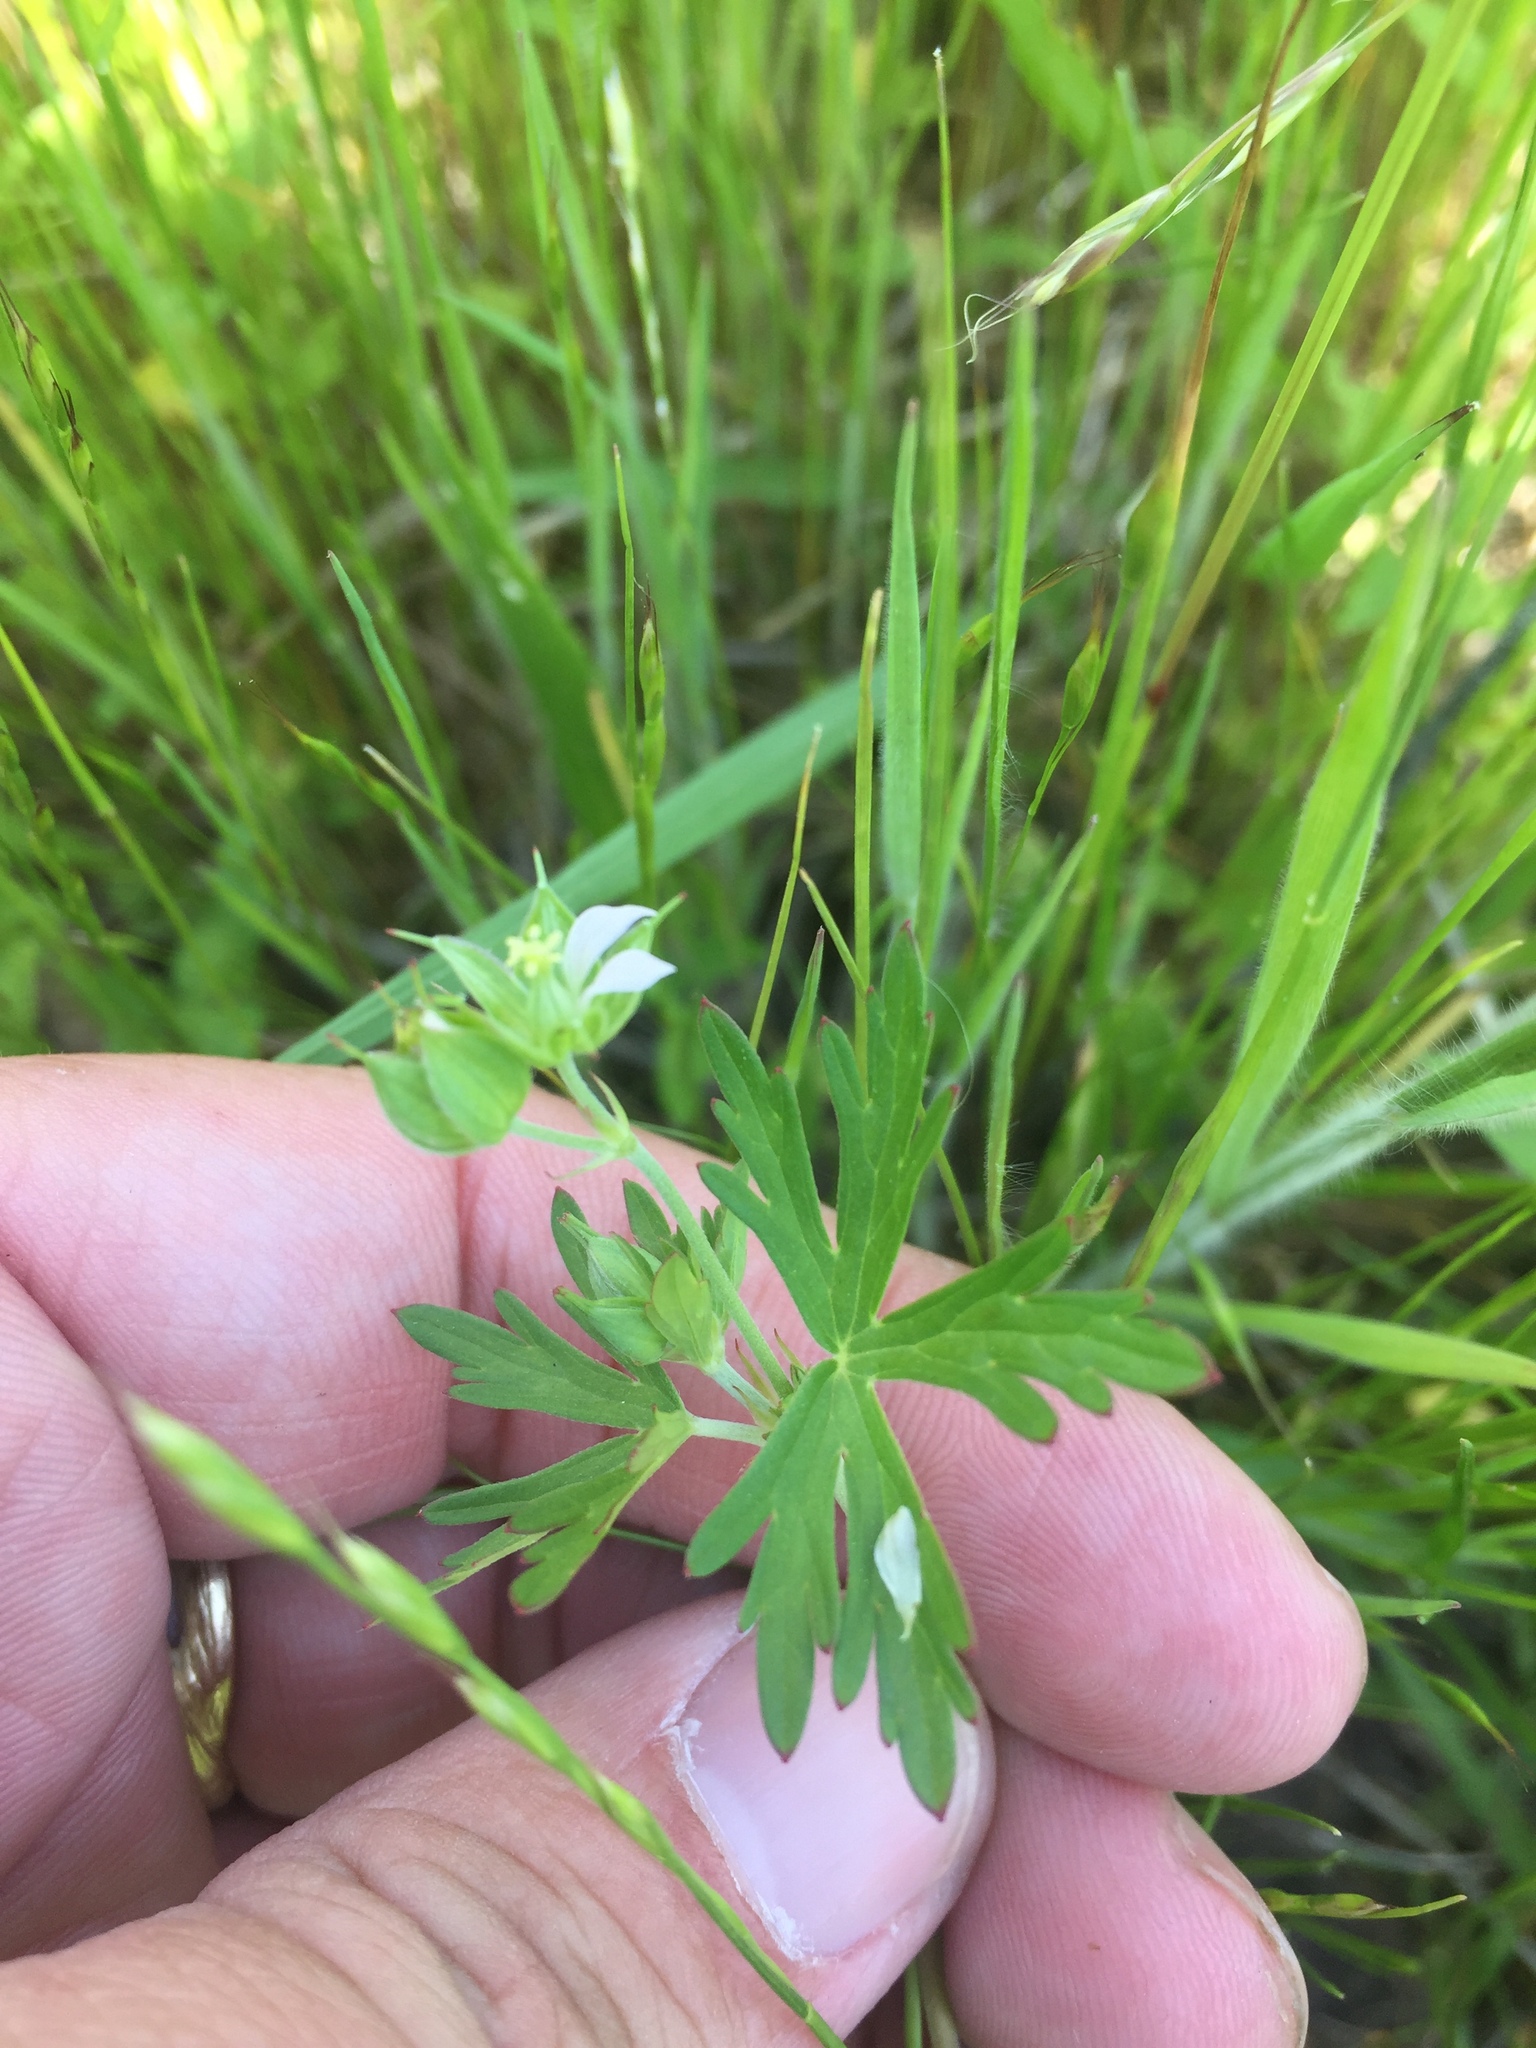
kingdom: Plantae
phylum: Tracheophyta
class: Magnoliopsida
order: Geraniales
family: Geraniaceae
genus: Geranium
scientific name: Geranium carolinianum
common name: Carolina crane's-bill
